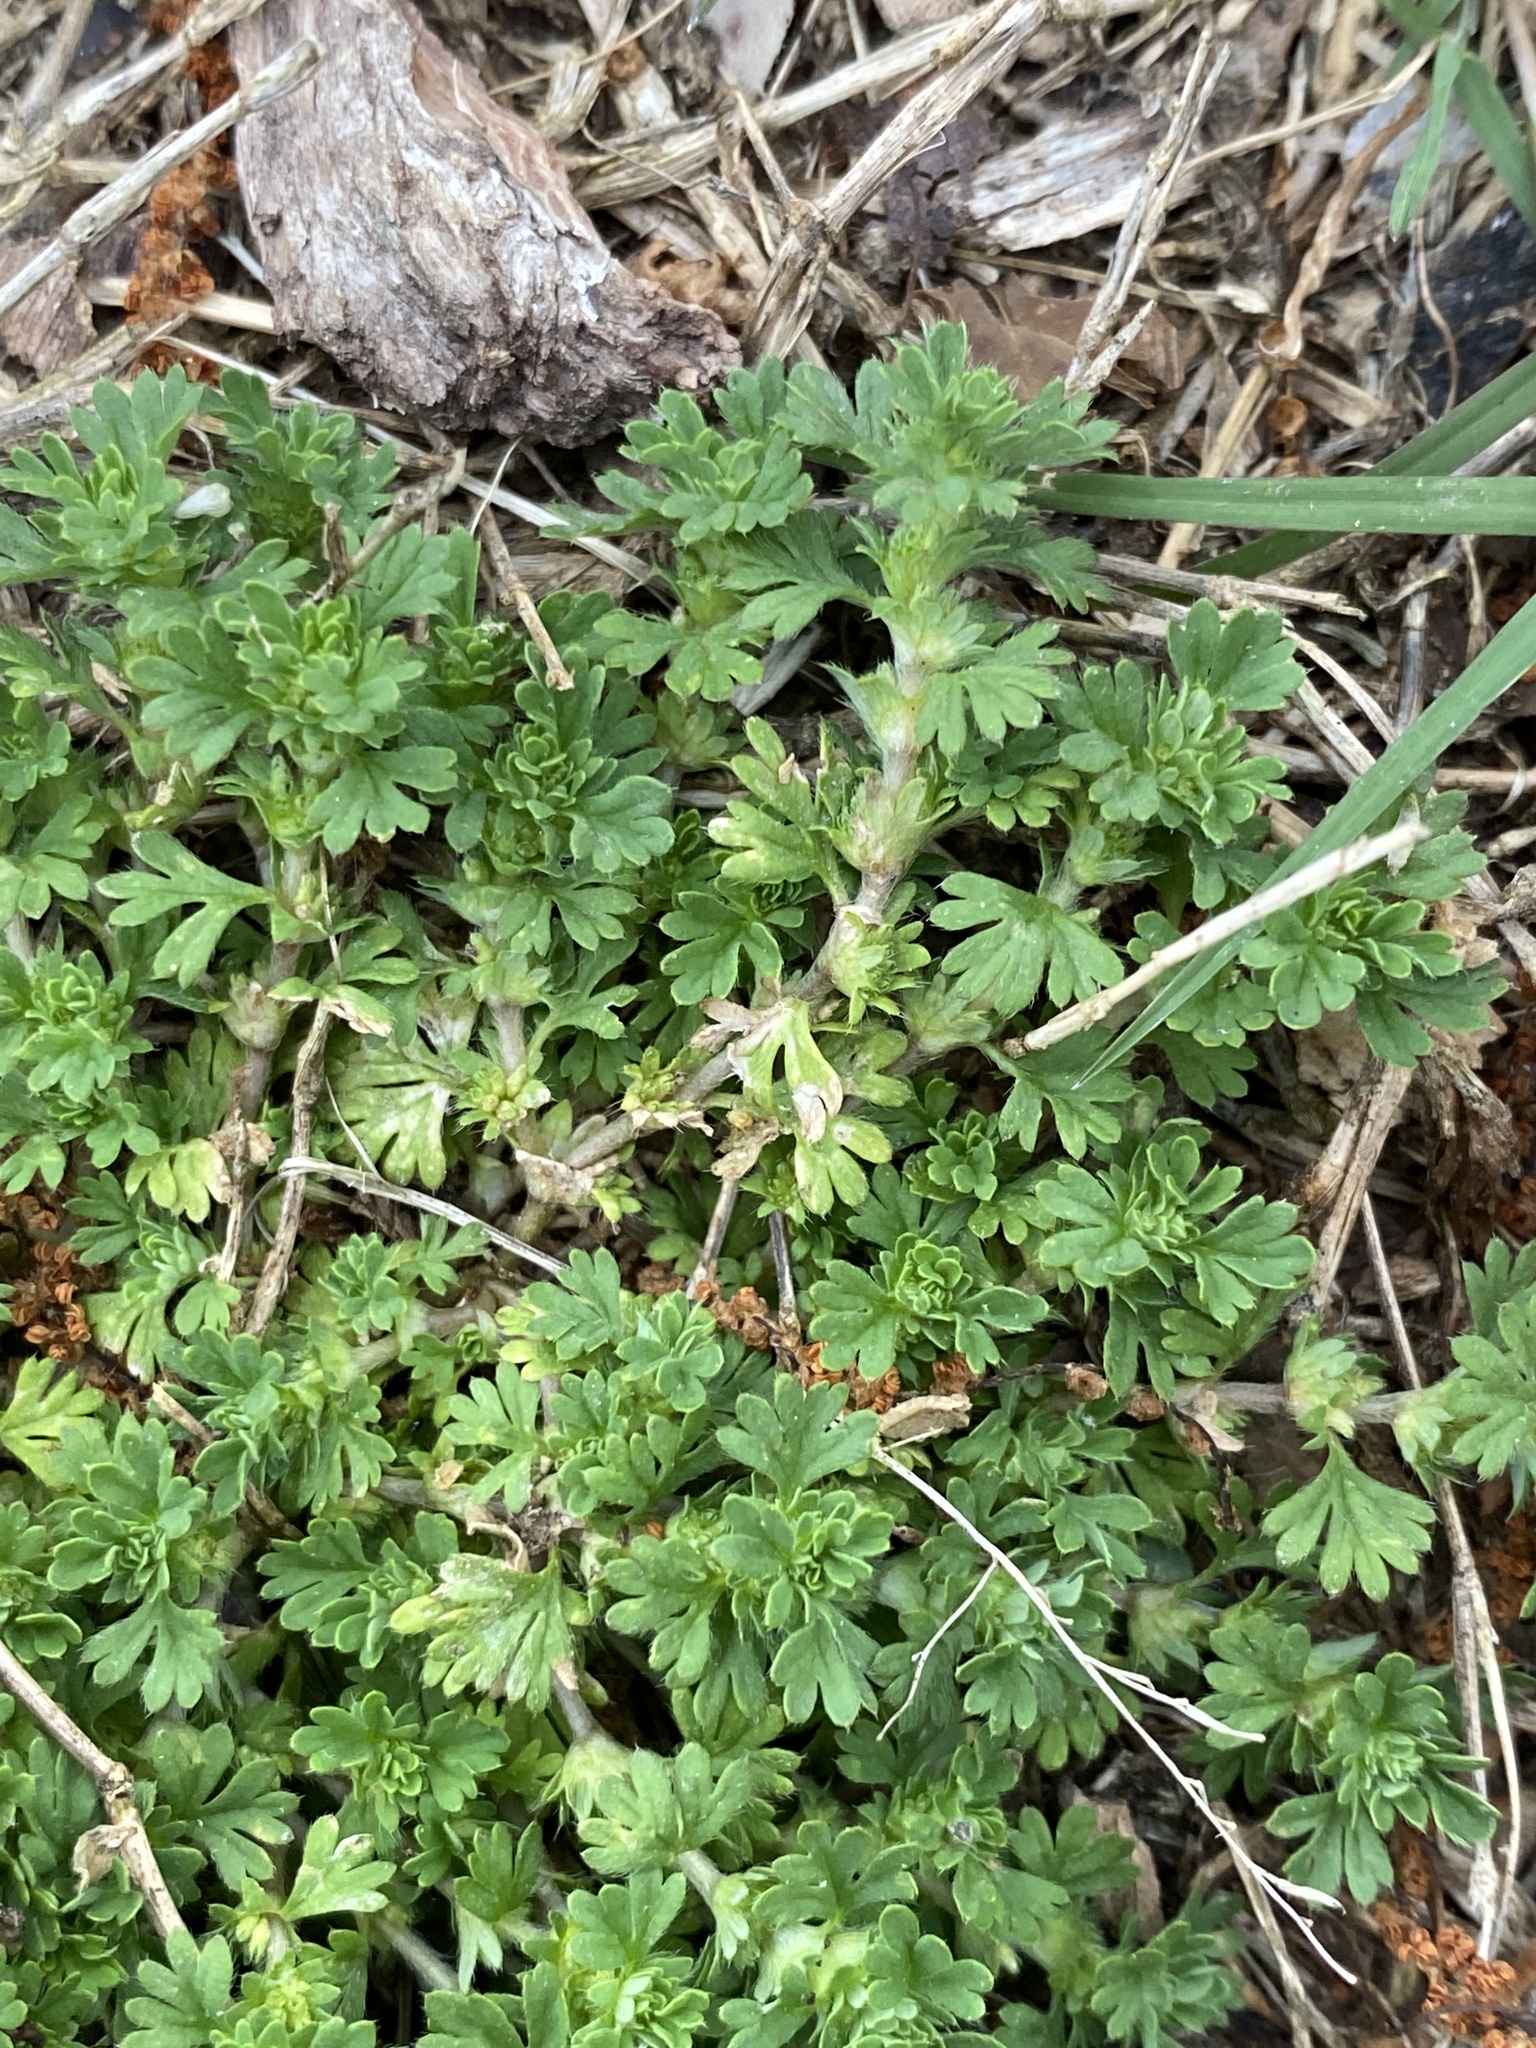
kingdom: Plantae
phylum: Tracheophyta
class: Magnoliopsida
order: Rosales
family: Rosaceae
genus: Aphanes
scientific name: Aphanes australis
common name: Slender parsley-piert
